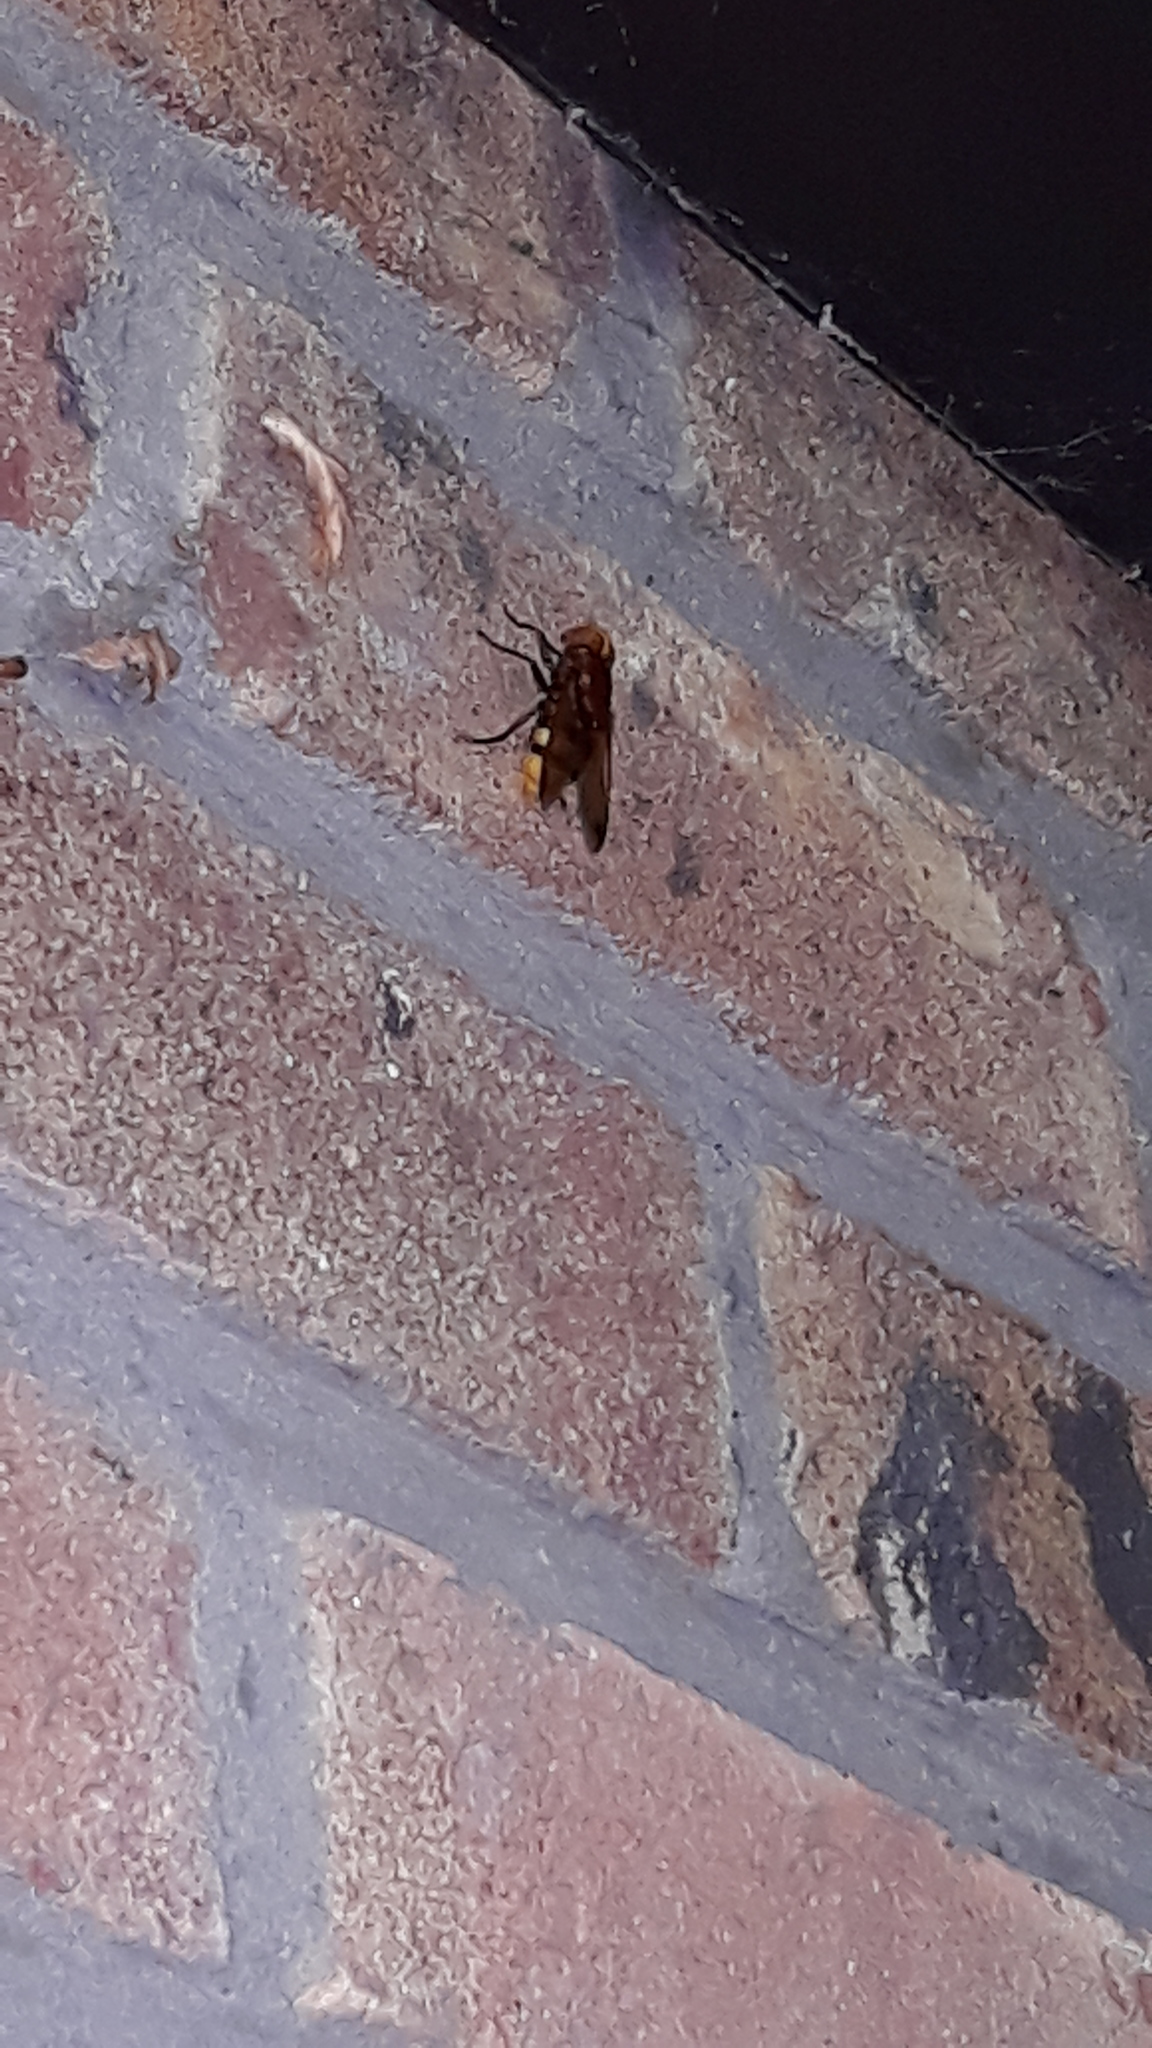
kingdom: Animalia
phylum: Arthropoda
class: Insecta
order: Diptera
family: Syrphidae
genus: Volucella
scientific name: Volucella zonaria
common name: Hornet hoverfly
